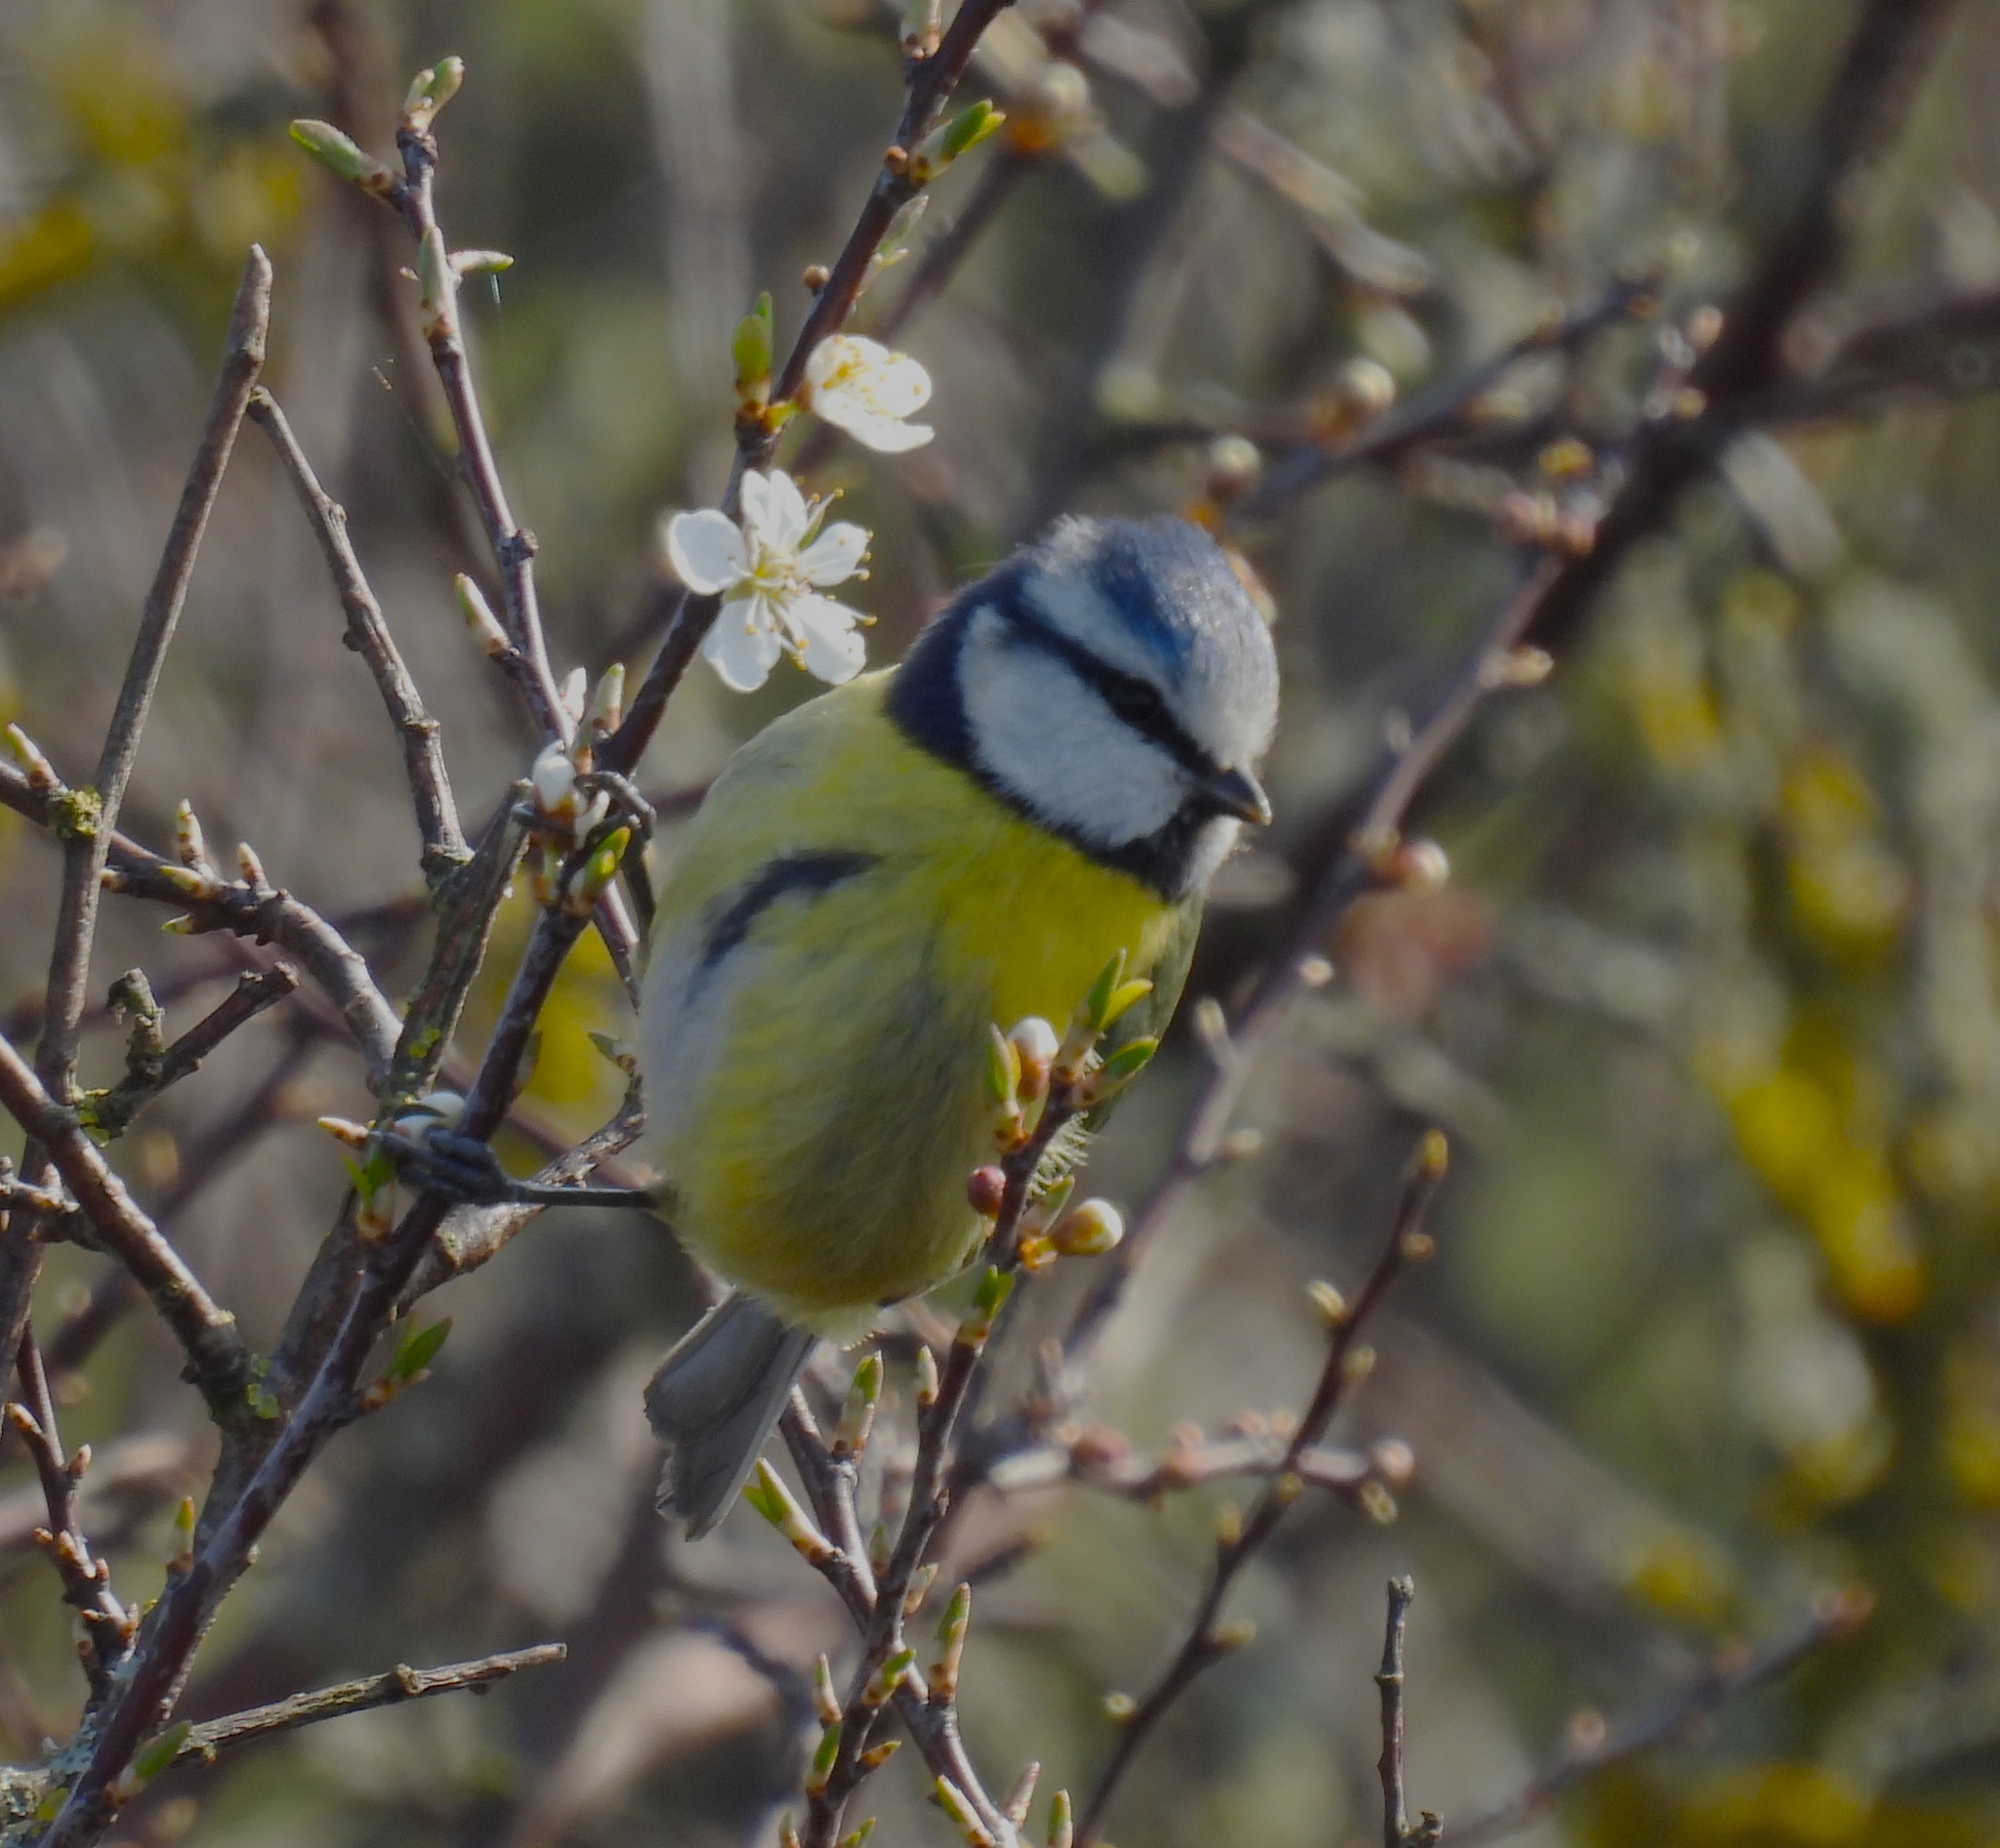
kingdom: Animalia
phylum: Chordata
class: Aves
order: Passeriformes
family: Paridae
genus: Cyanistes
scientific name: Cyanistes caeruleus
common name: Eurasian blue tit
